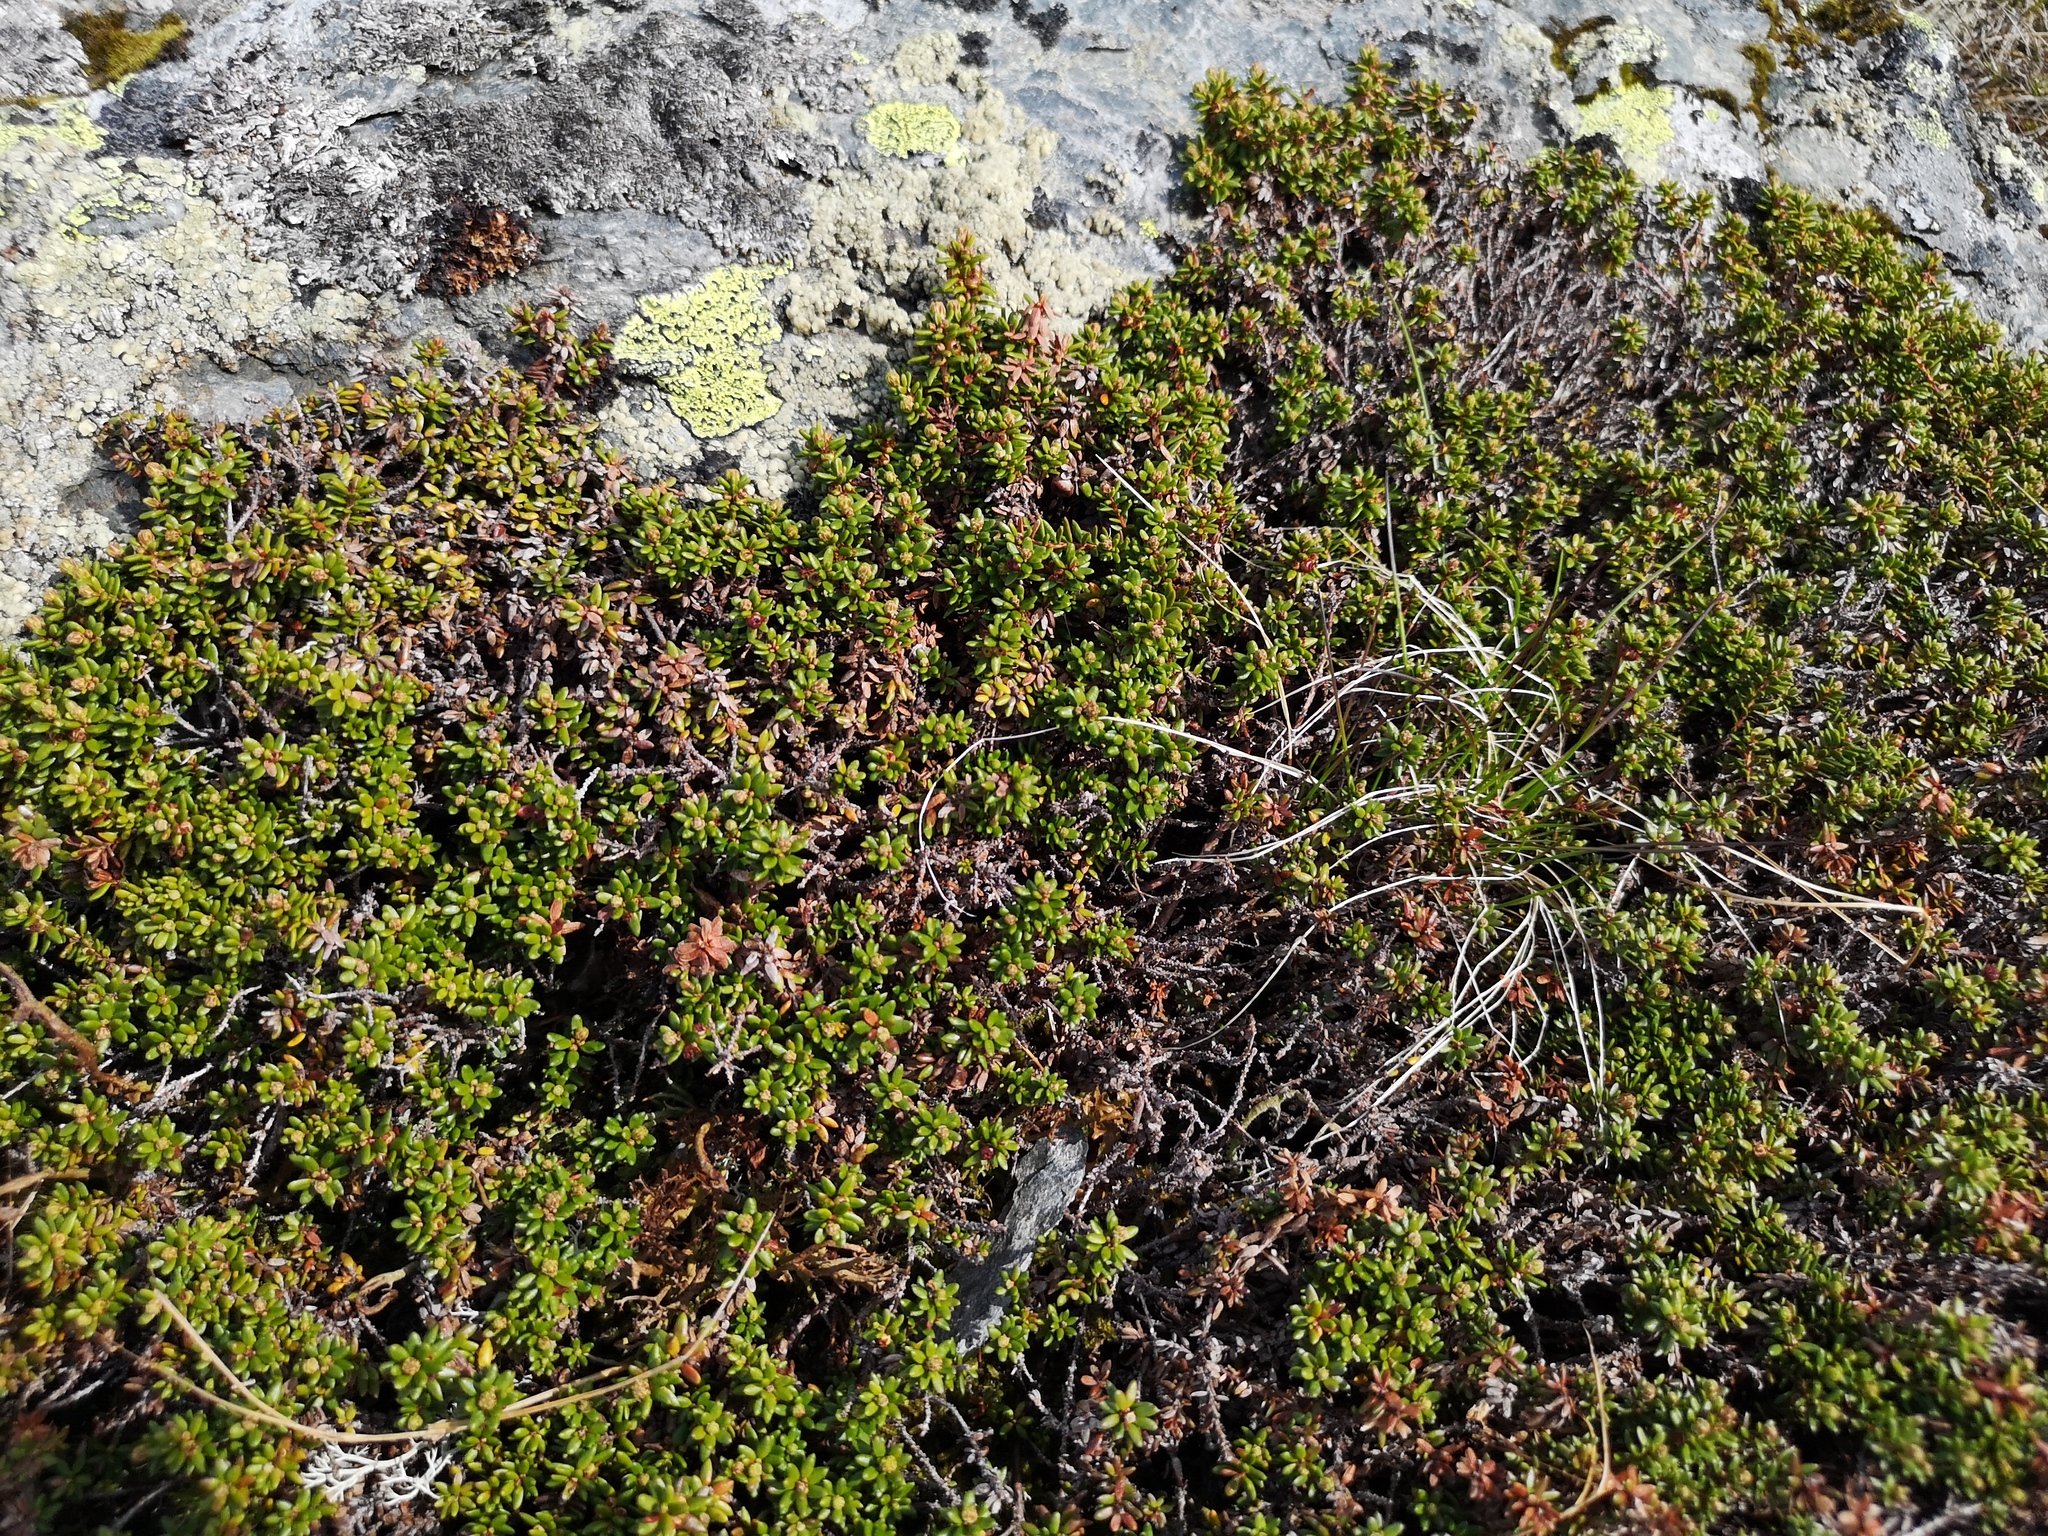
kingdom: Plantae
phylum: Tracheophyta
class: Magnoliopsida
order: Ericales
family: Ericaceae
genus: Empetrum
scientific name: Empetrum nigrum
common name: Black crowberry
